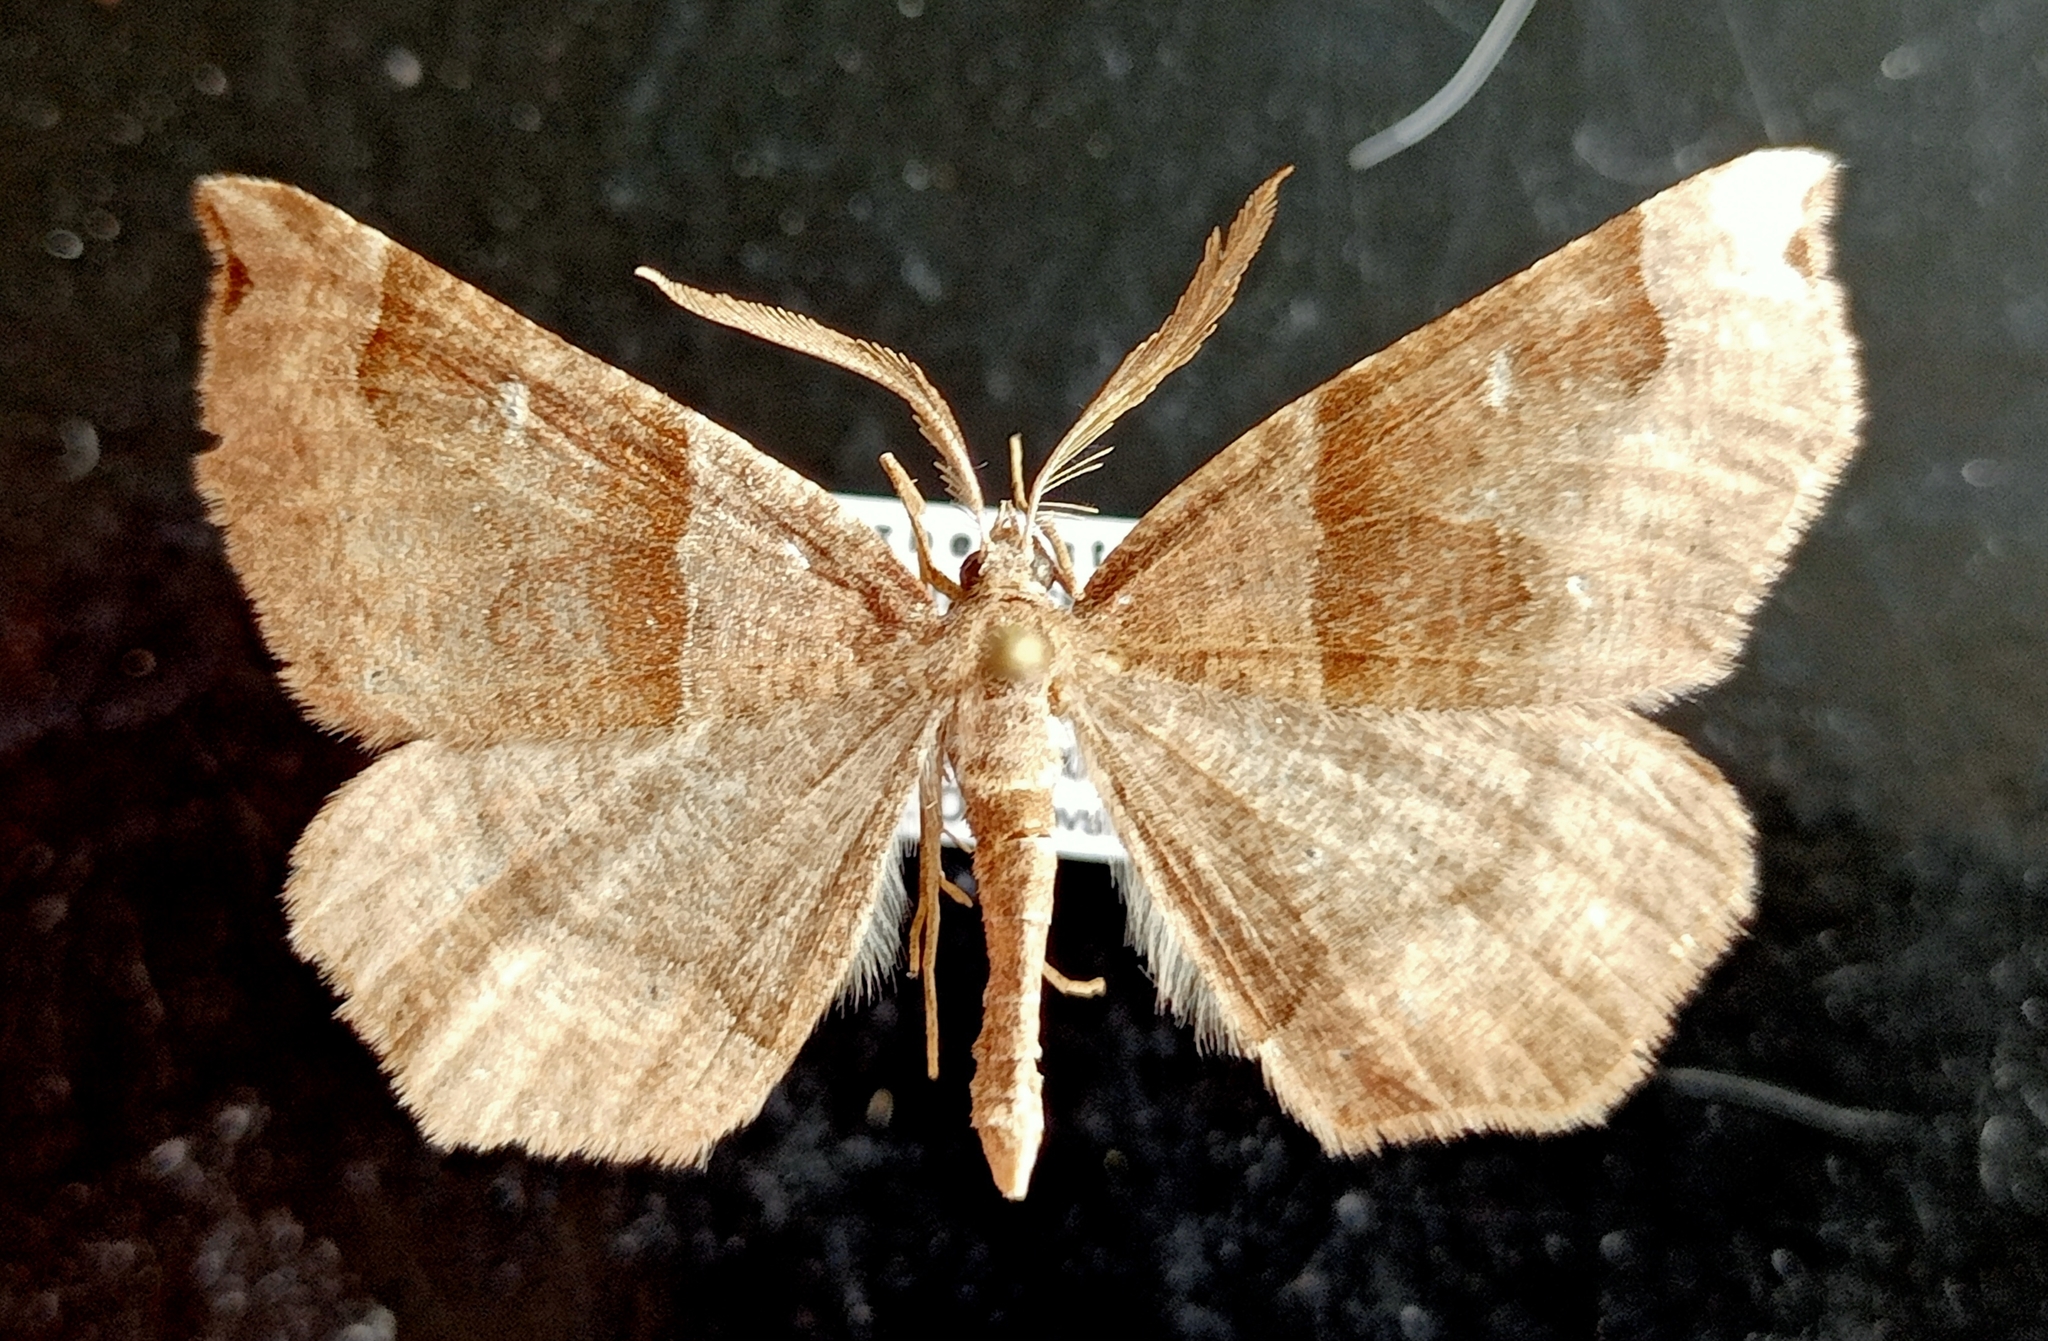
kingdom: Animalia
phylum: Arthropoda
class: Insecta
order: Lepidoptera
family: Geometridae
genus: Artemidora
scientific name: Artemidora alpherakyi
